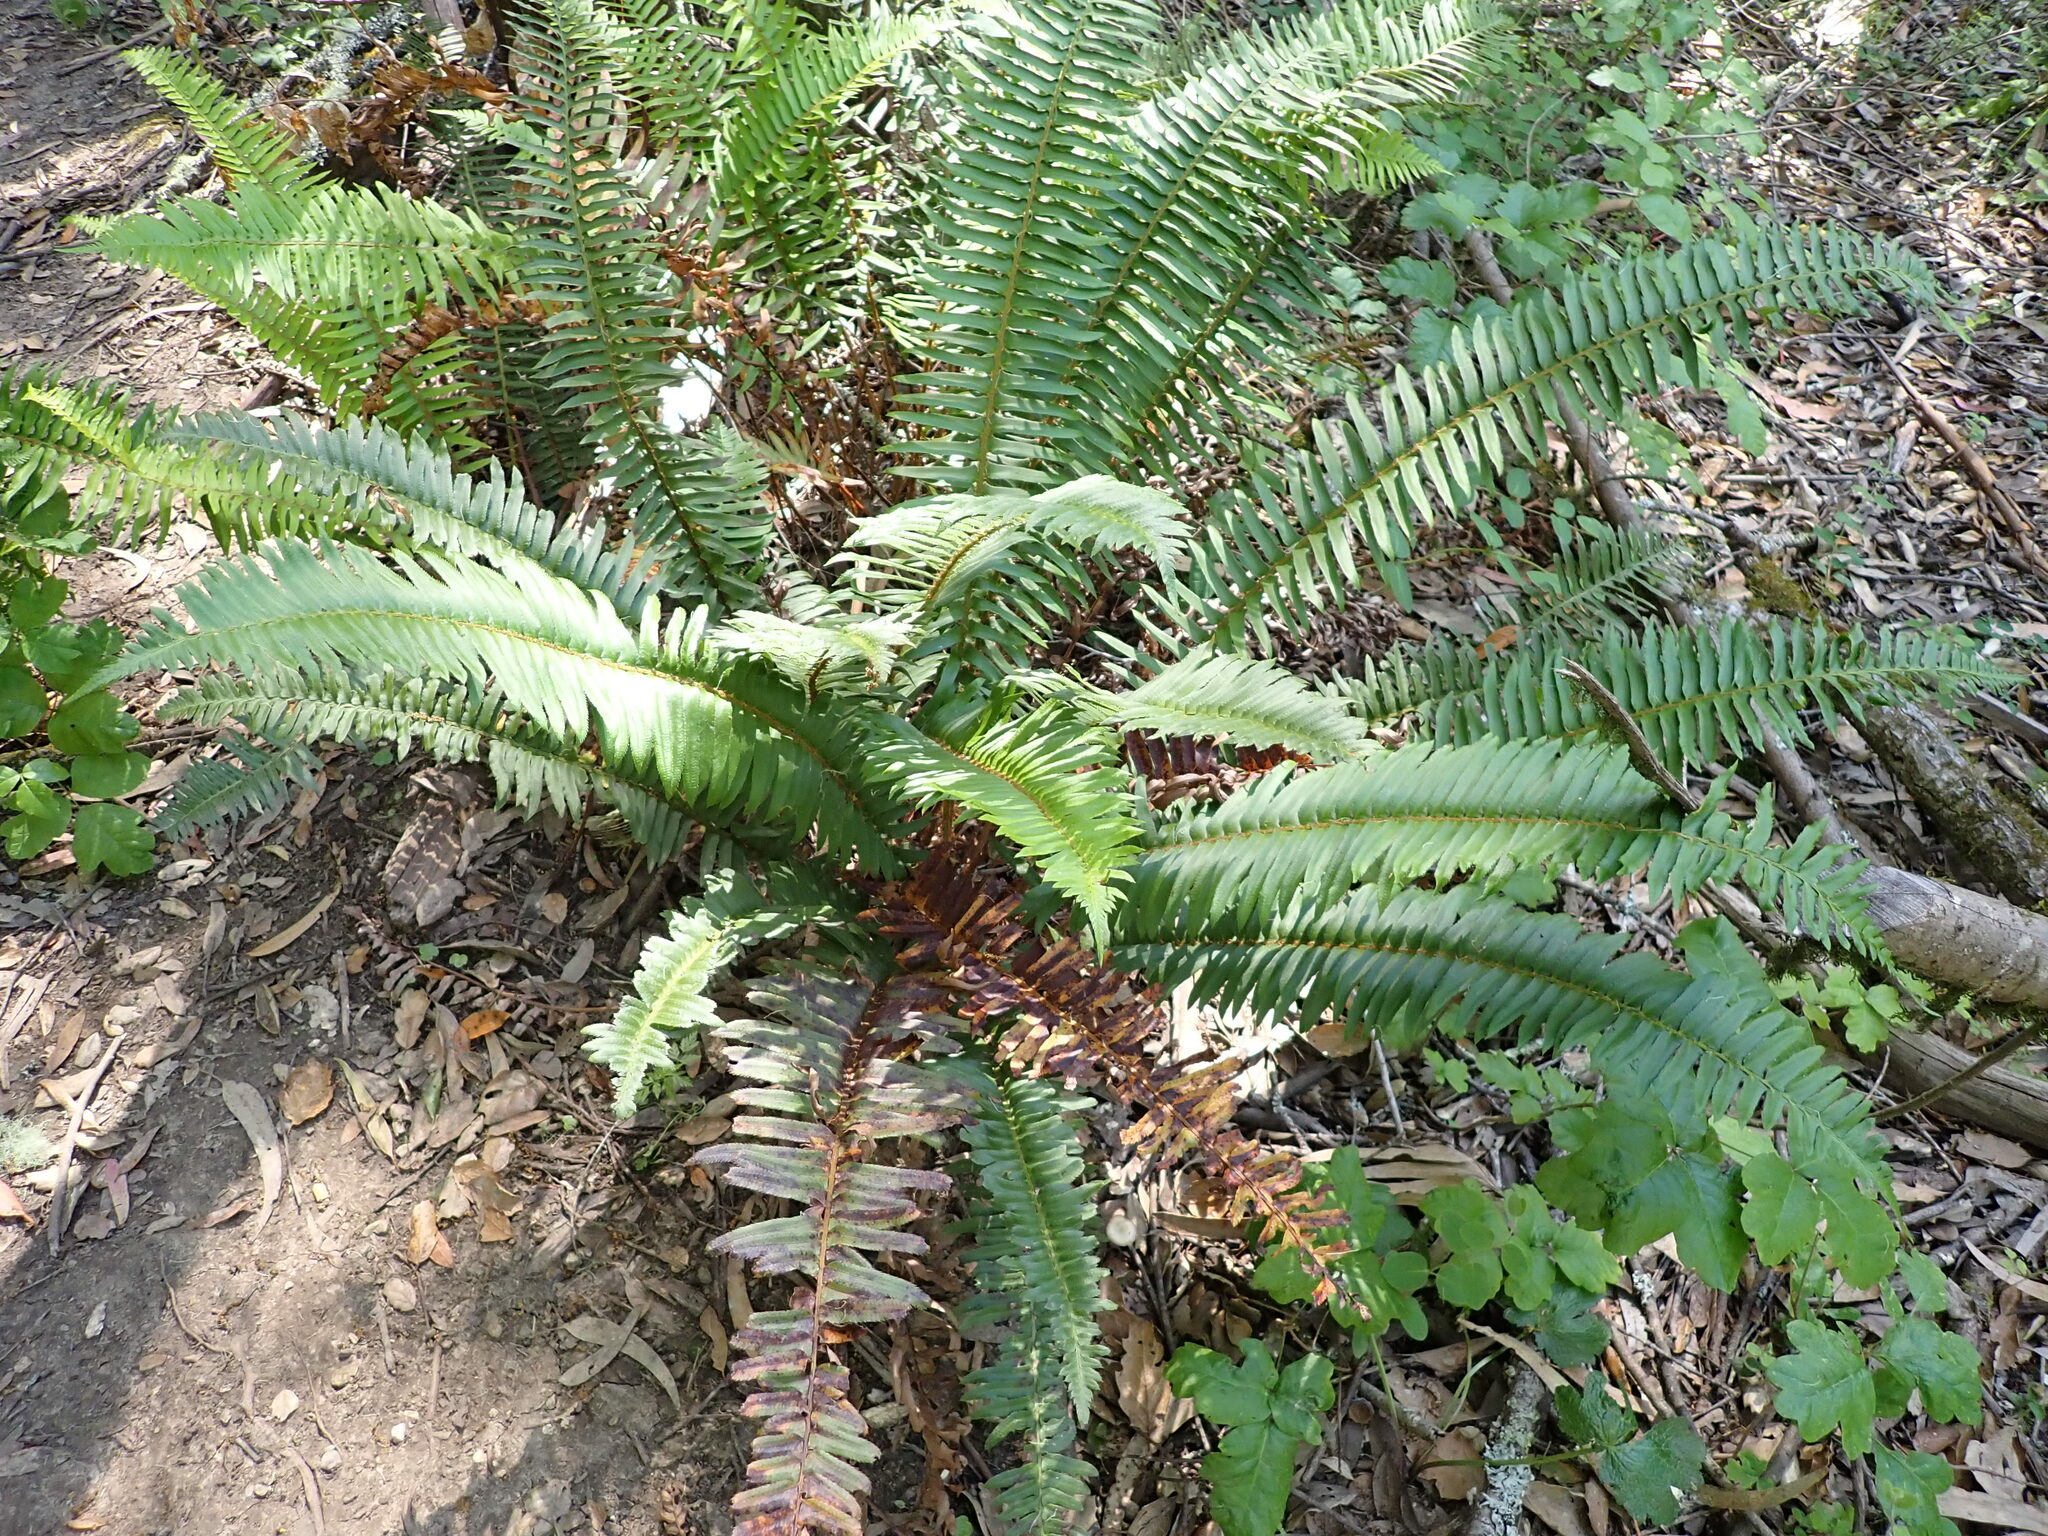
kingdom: Plantae
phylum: Tracheophyta
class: Polypodiopsida
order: Polypodiales
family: Dryopteridaceae
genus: Polystichum
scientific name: Polystichum munitum
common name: Western sword-fern
